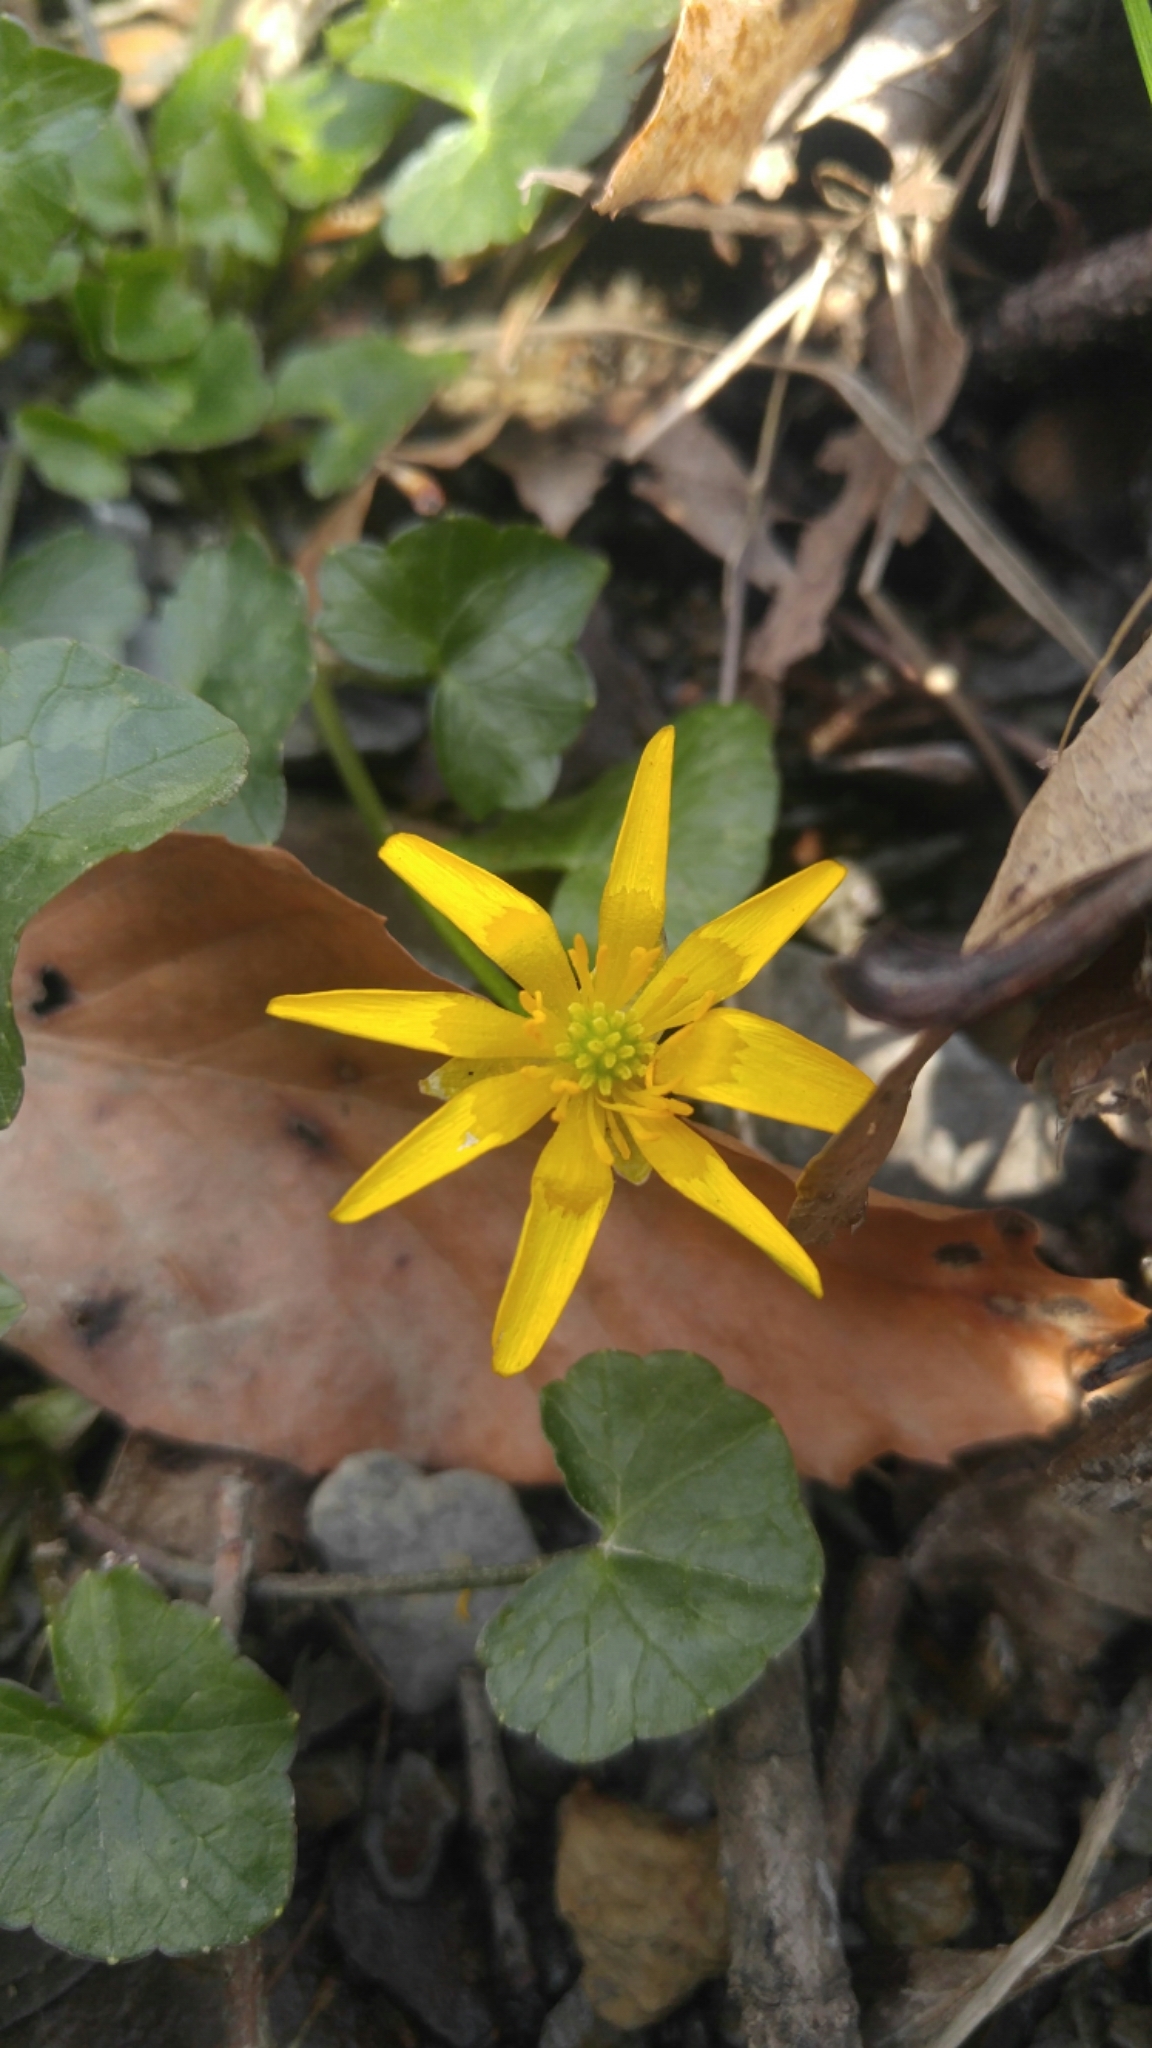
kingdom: Plantae
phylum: Tracheophyta
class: Magnoliopsida
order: Ranunculales
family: Ranunculaceae
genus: Ficaria
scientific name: Ficaria verna
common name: Lesser celandine
